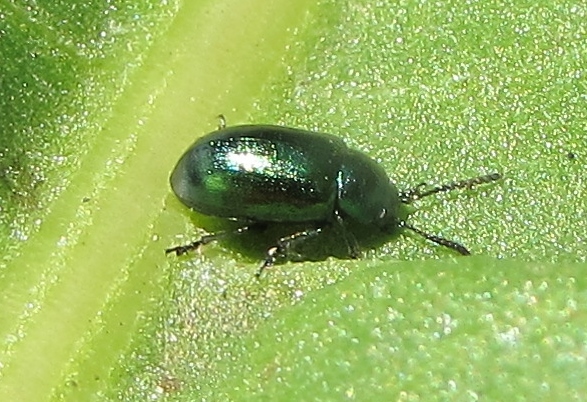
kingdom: Animalia
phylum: Arthropoda
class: Insecta
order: Coleoptera
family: Chrysomelidae
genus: Gastrophysa
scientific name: Gastrophysa cyanea
